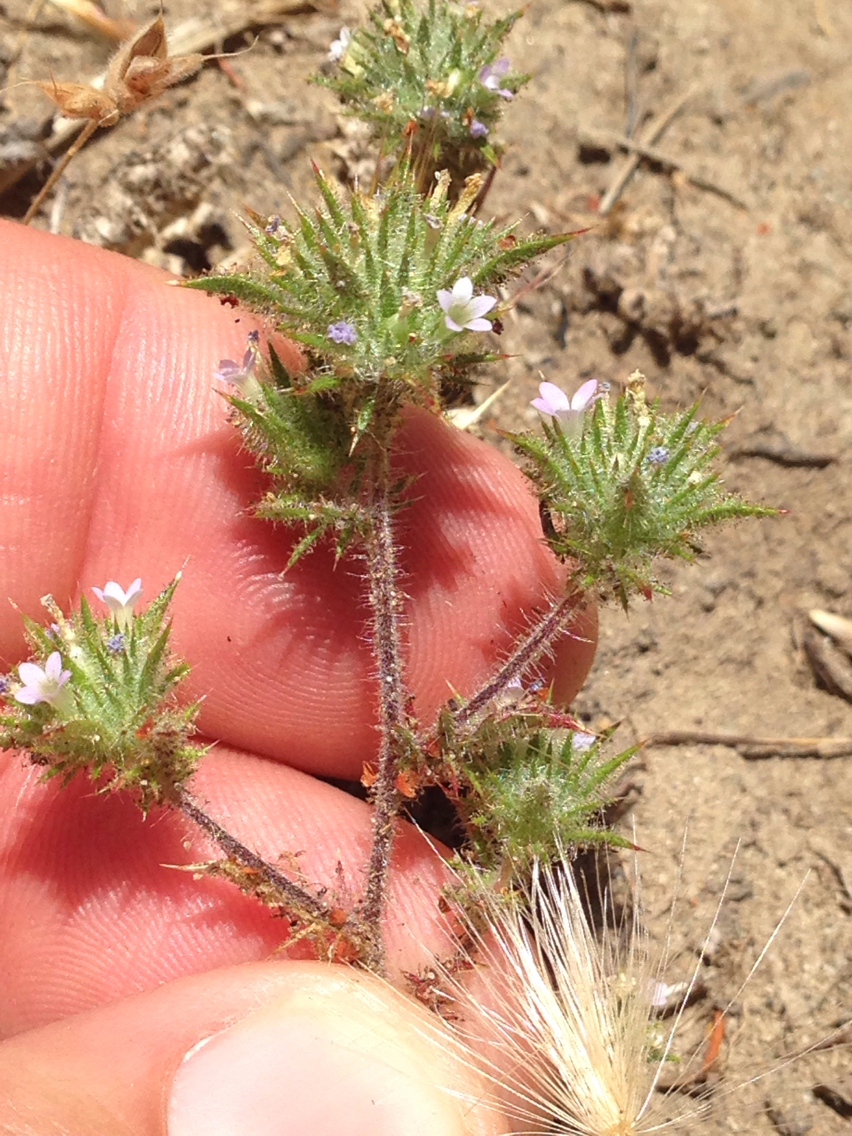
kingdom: Plantae
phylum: Tracheophyta
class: Magnoliopsida
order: Ericales
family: Polemoniaceae
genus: Navarretia
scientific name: Navarretia mellita
